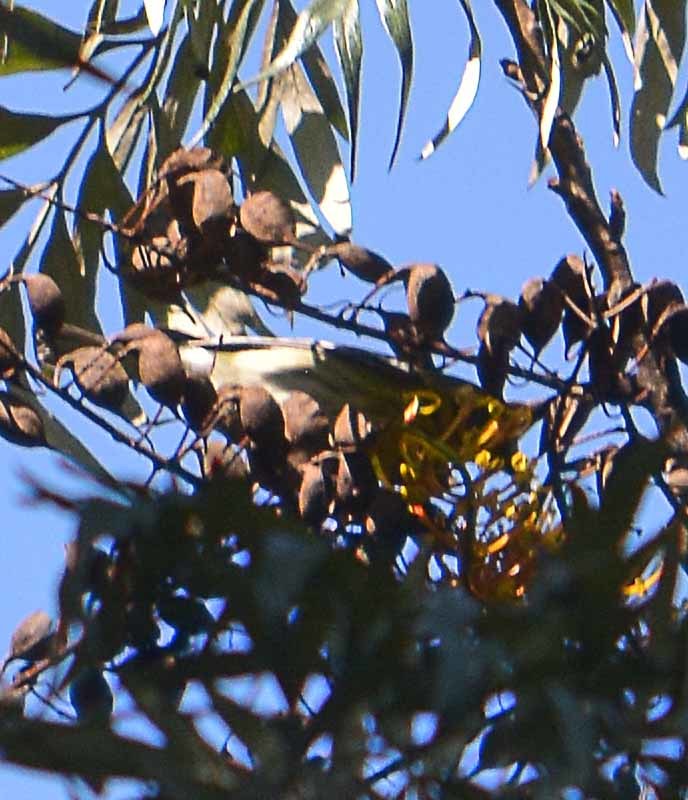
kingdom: Animalia
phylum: Chordata
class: Aves
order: Passeriformes
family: Parulidae
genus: Setophaga
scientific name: Setophaga townsendi
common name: Townsend's warbler
